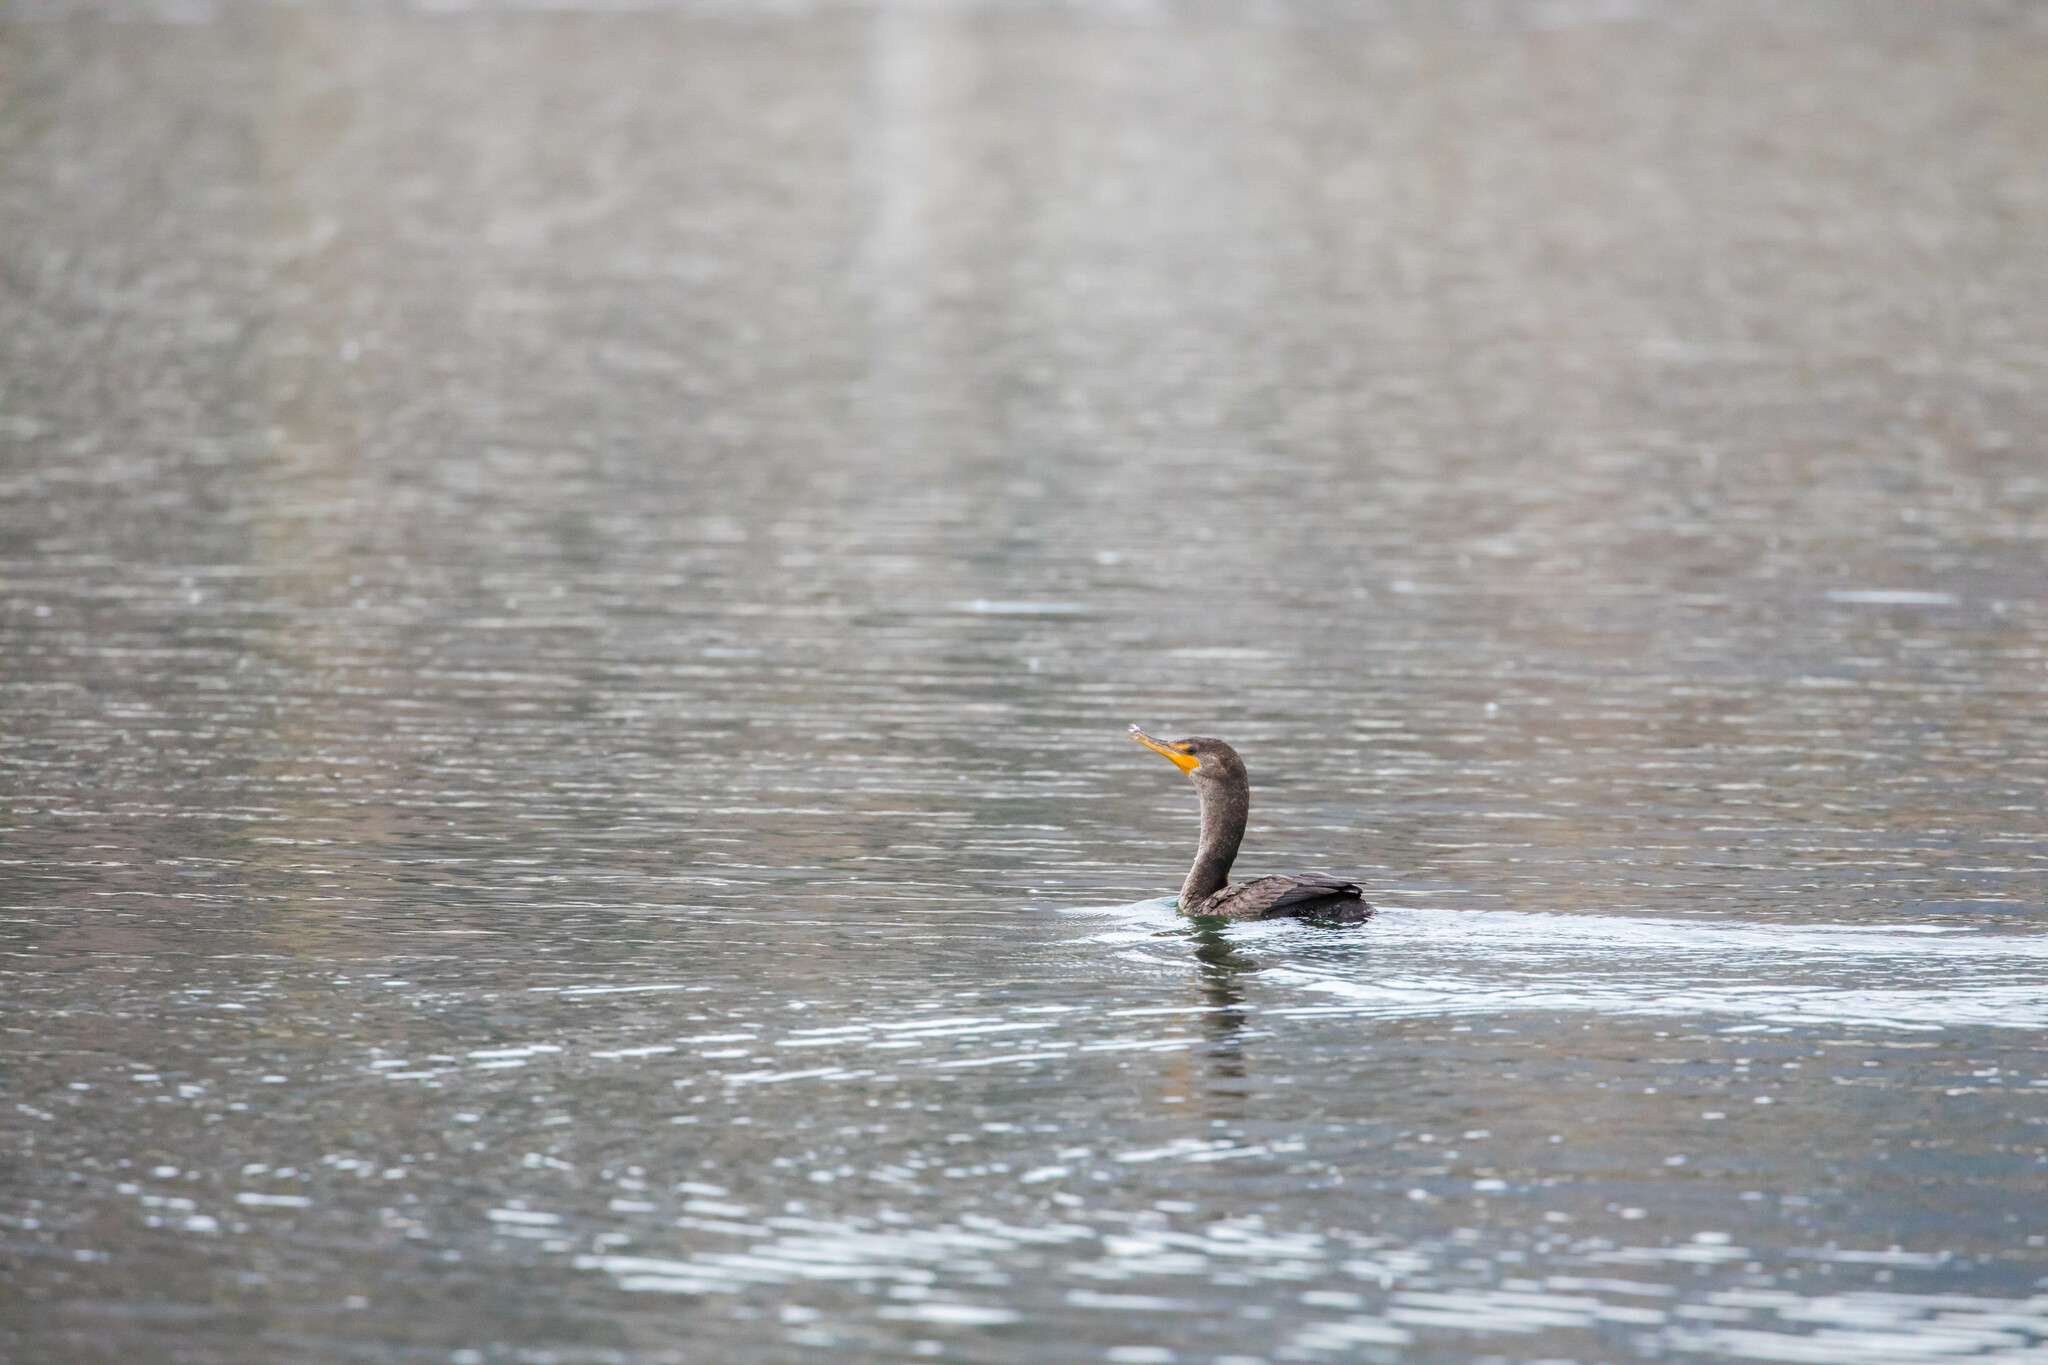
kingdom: Animalia
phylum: Chordata
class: Aves
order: Suliformes
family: Phalacrocoracidae
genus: Phalacrocorax
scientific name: Phalacrocorax auritus
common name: Double-crested cormorant
